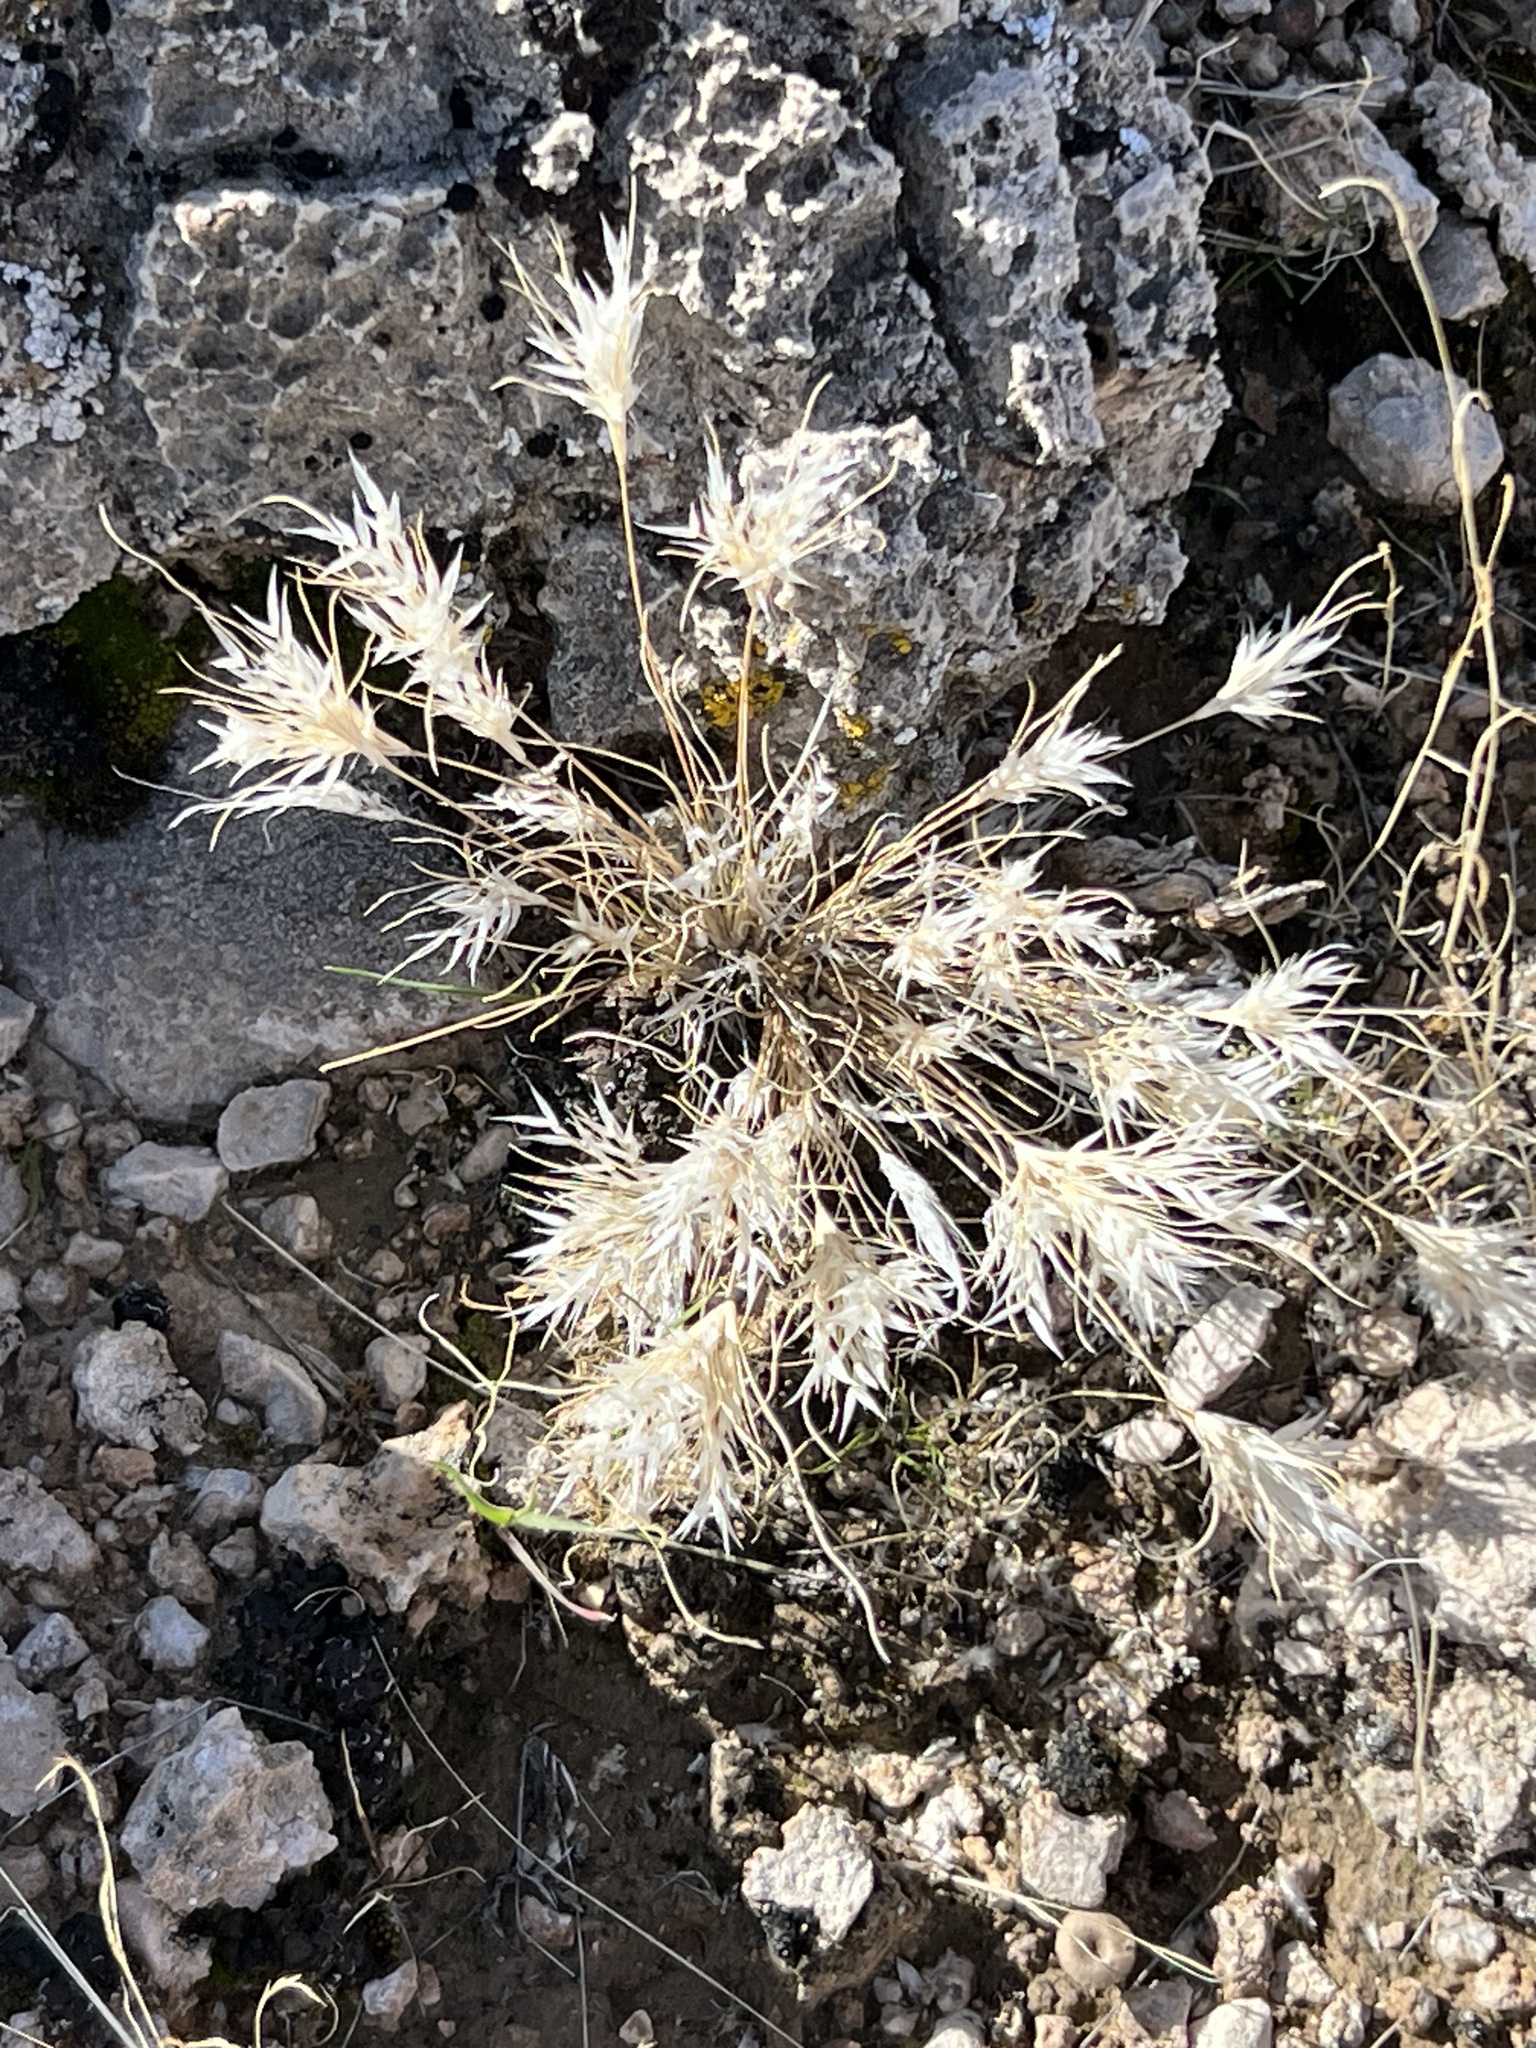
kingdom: Plantae
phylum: Tracheophyta
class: Liliopsida
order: Poales
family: Poaceae
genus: Dasyochloa
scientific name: Dasyochloa pulchella
